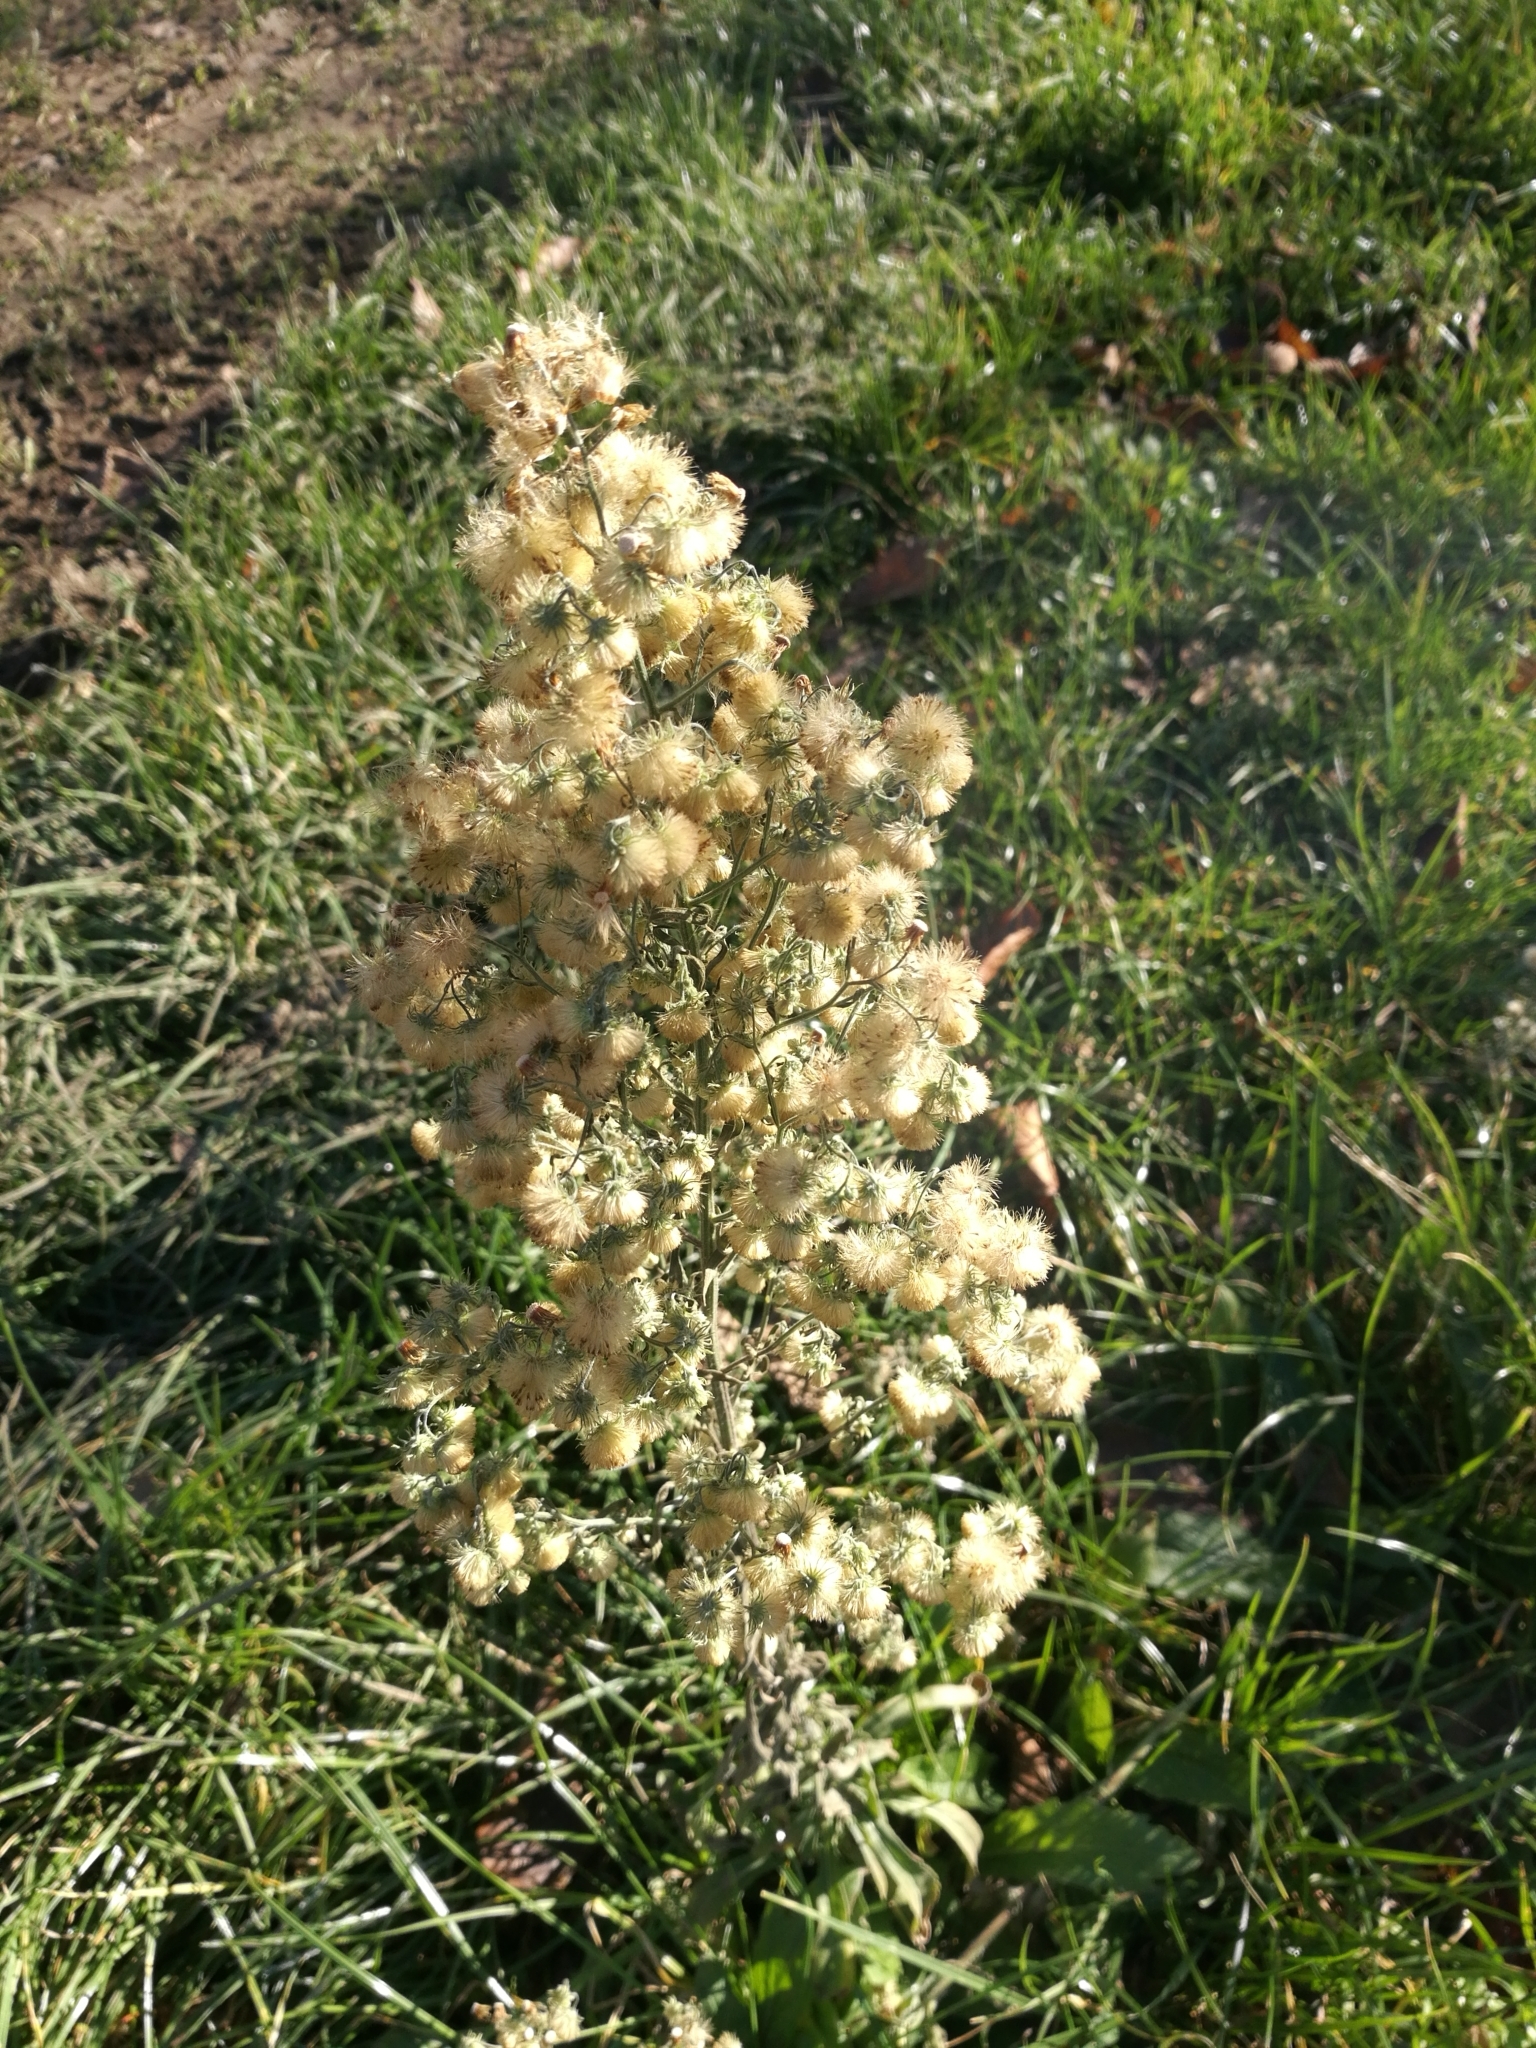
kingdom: Plantae
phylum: Tracheophyta
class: Magnoliopsida
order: Asterales
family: Asteraceae
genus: Erigeron
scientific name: Erigeron canadensis
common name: Canadian fleabane
